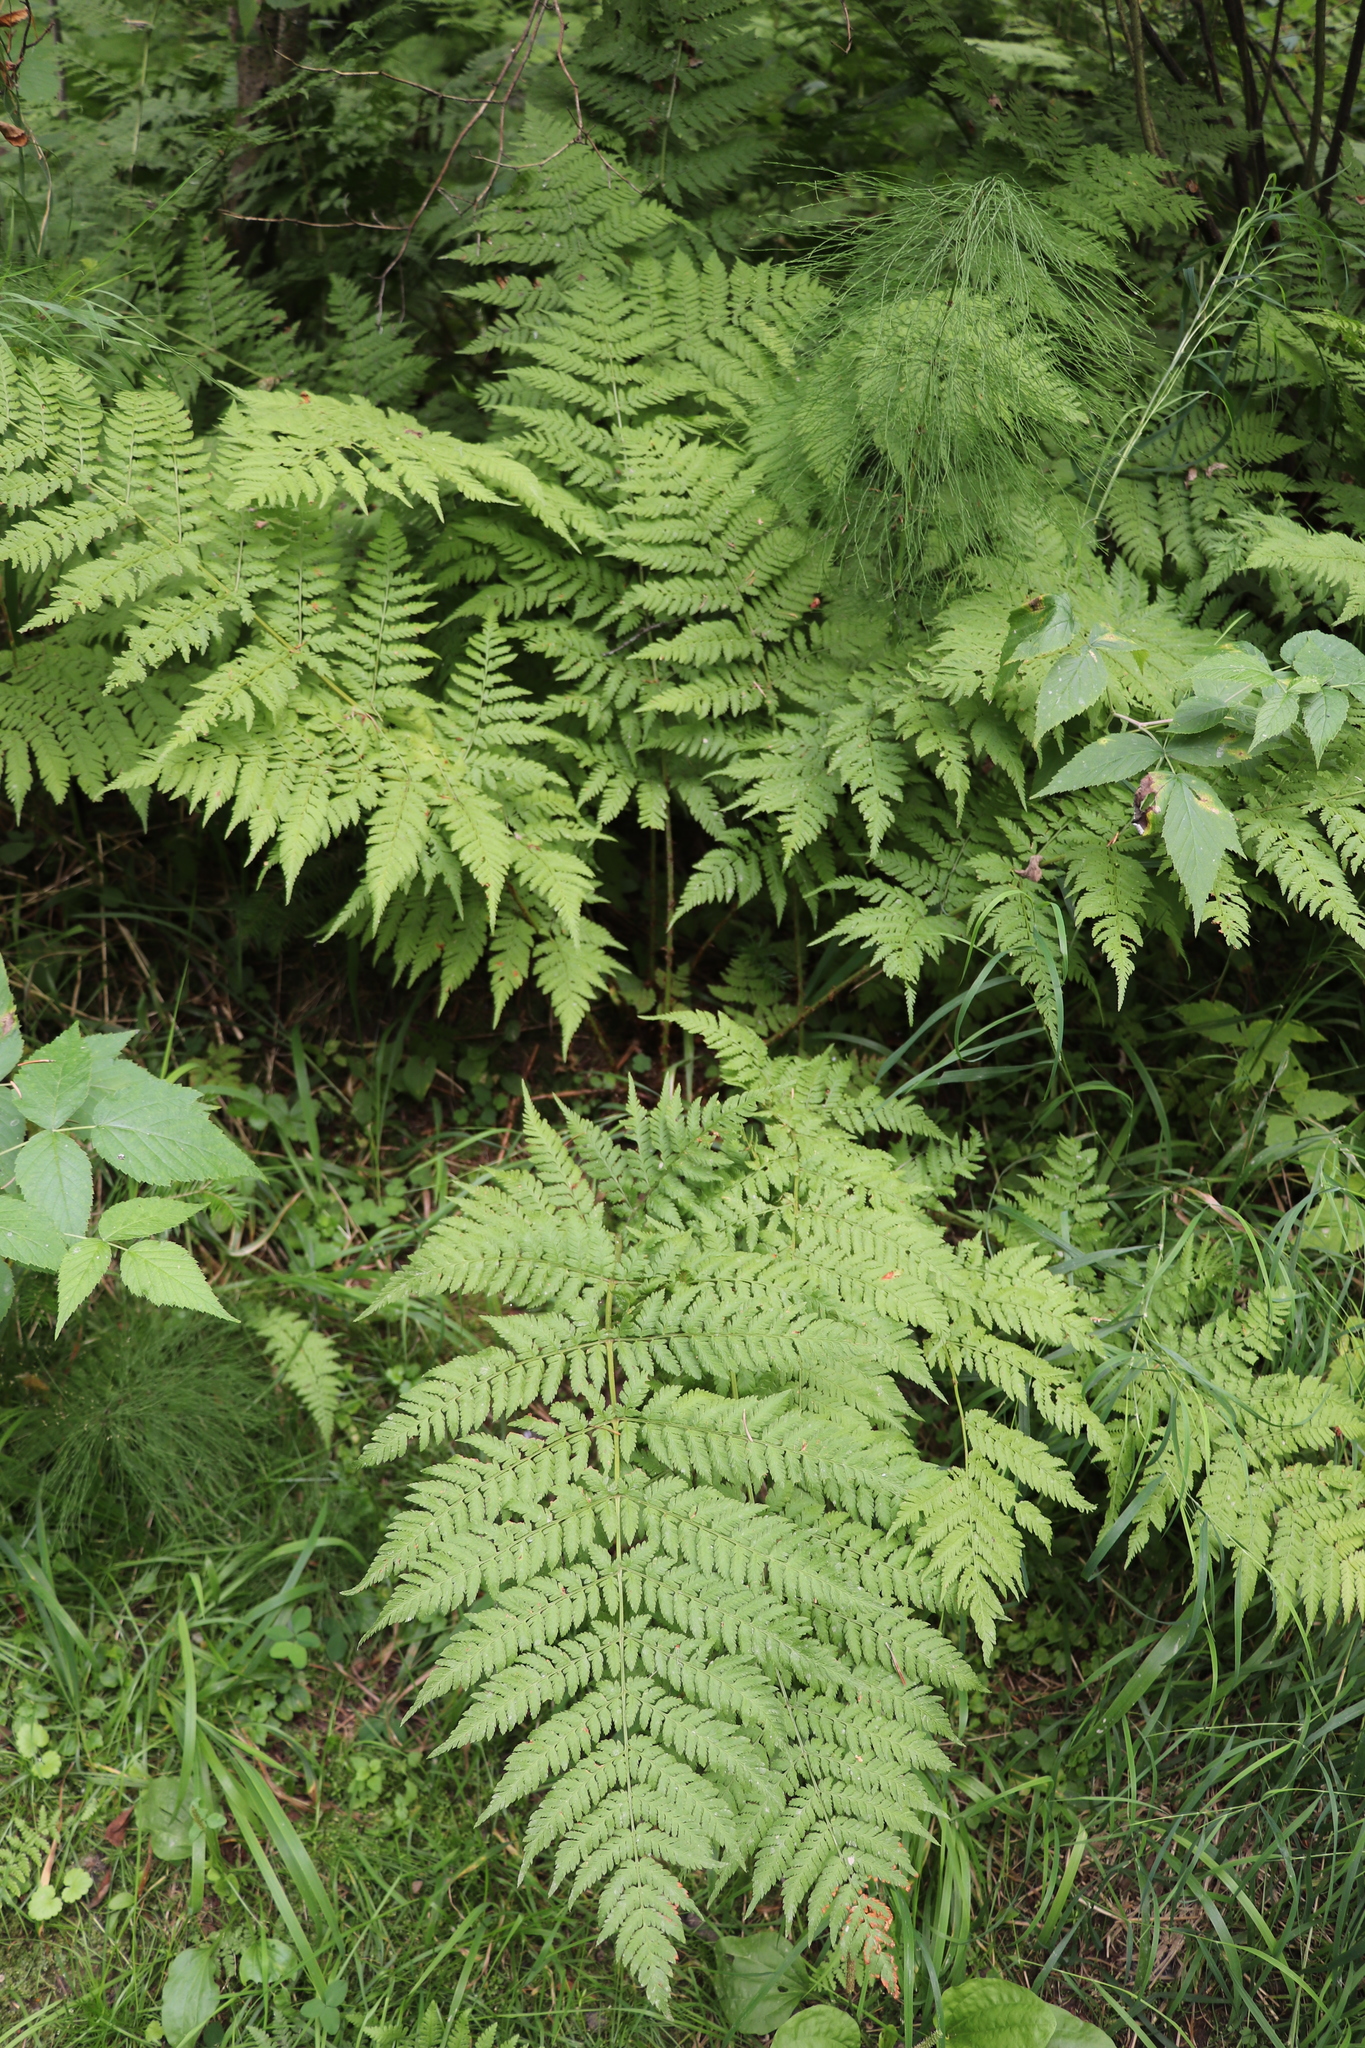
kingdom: Plantae
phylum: Tracheophyta
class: Polypodiopsida
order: Polypodiales
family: Dryopteridaceae
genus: Dryopteris
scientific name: Dryopteris expansa
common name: Northern buckler fern
